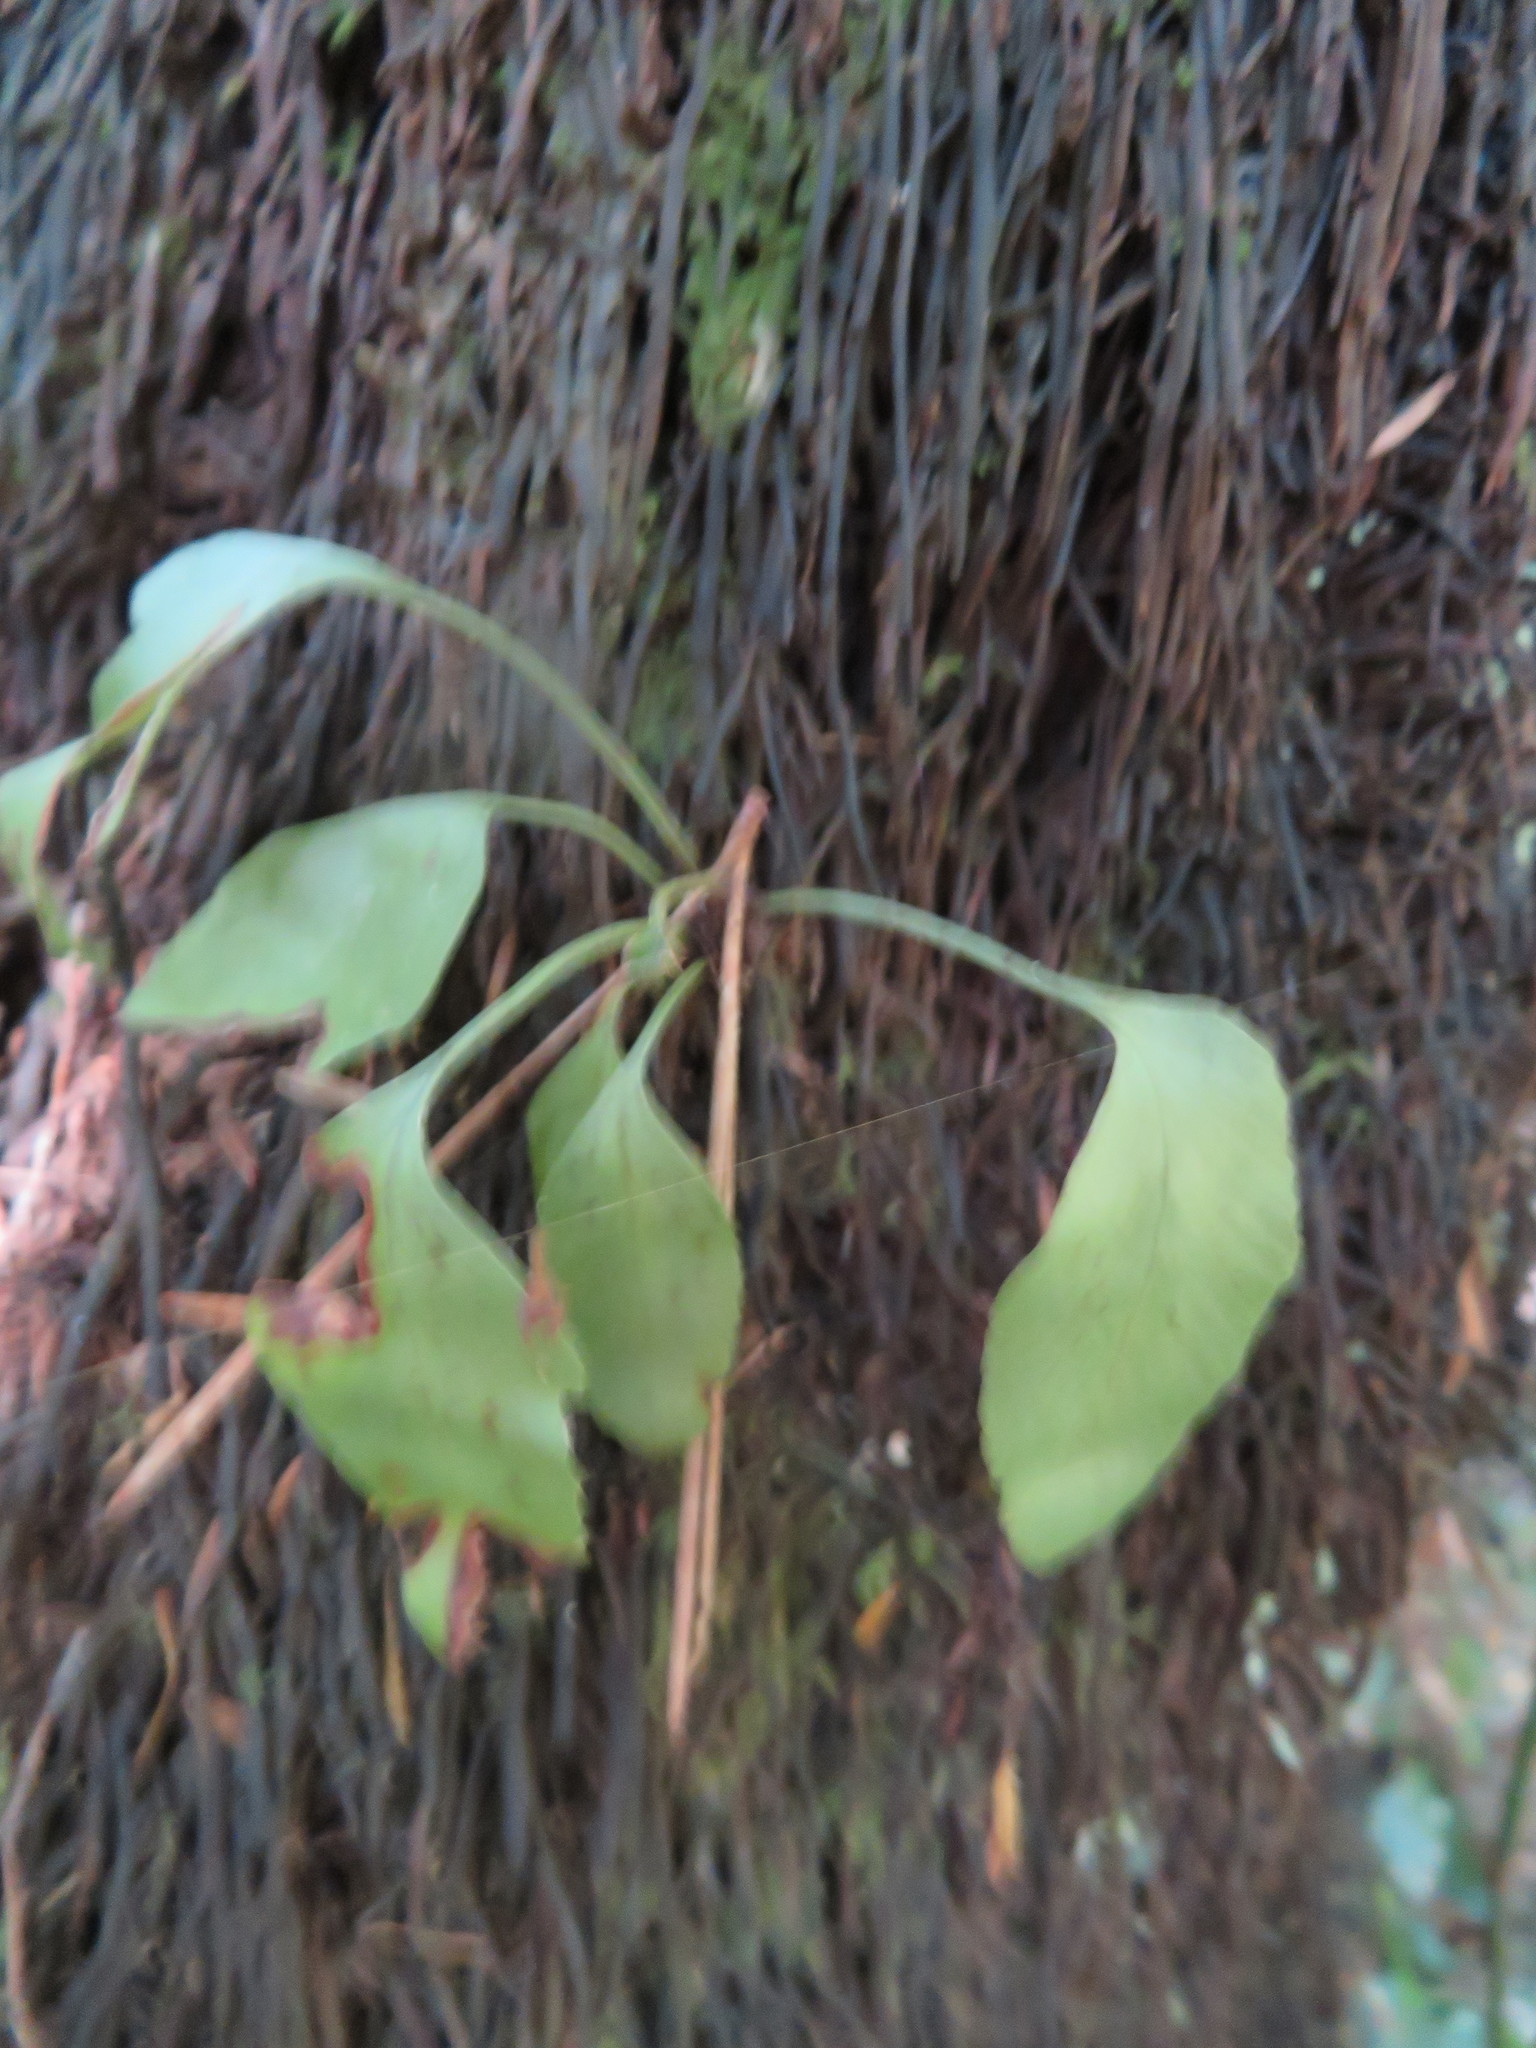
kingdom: Plantae
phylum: Tracheophyta
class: Polypodiopsida
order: Polypodiales
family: Aspleniaceae
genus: Asplenium
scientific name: Asplenium oblongifolium
